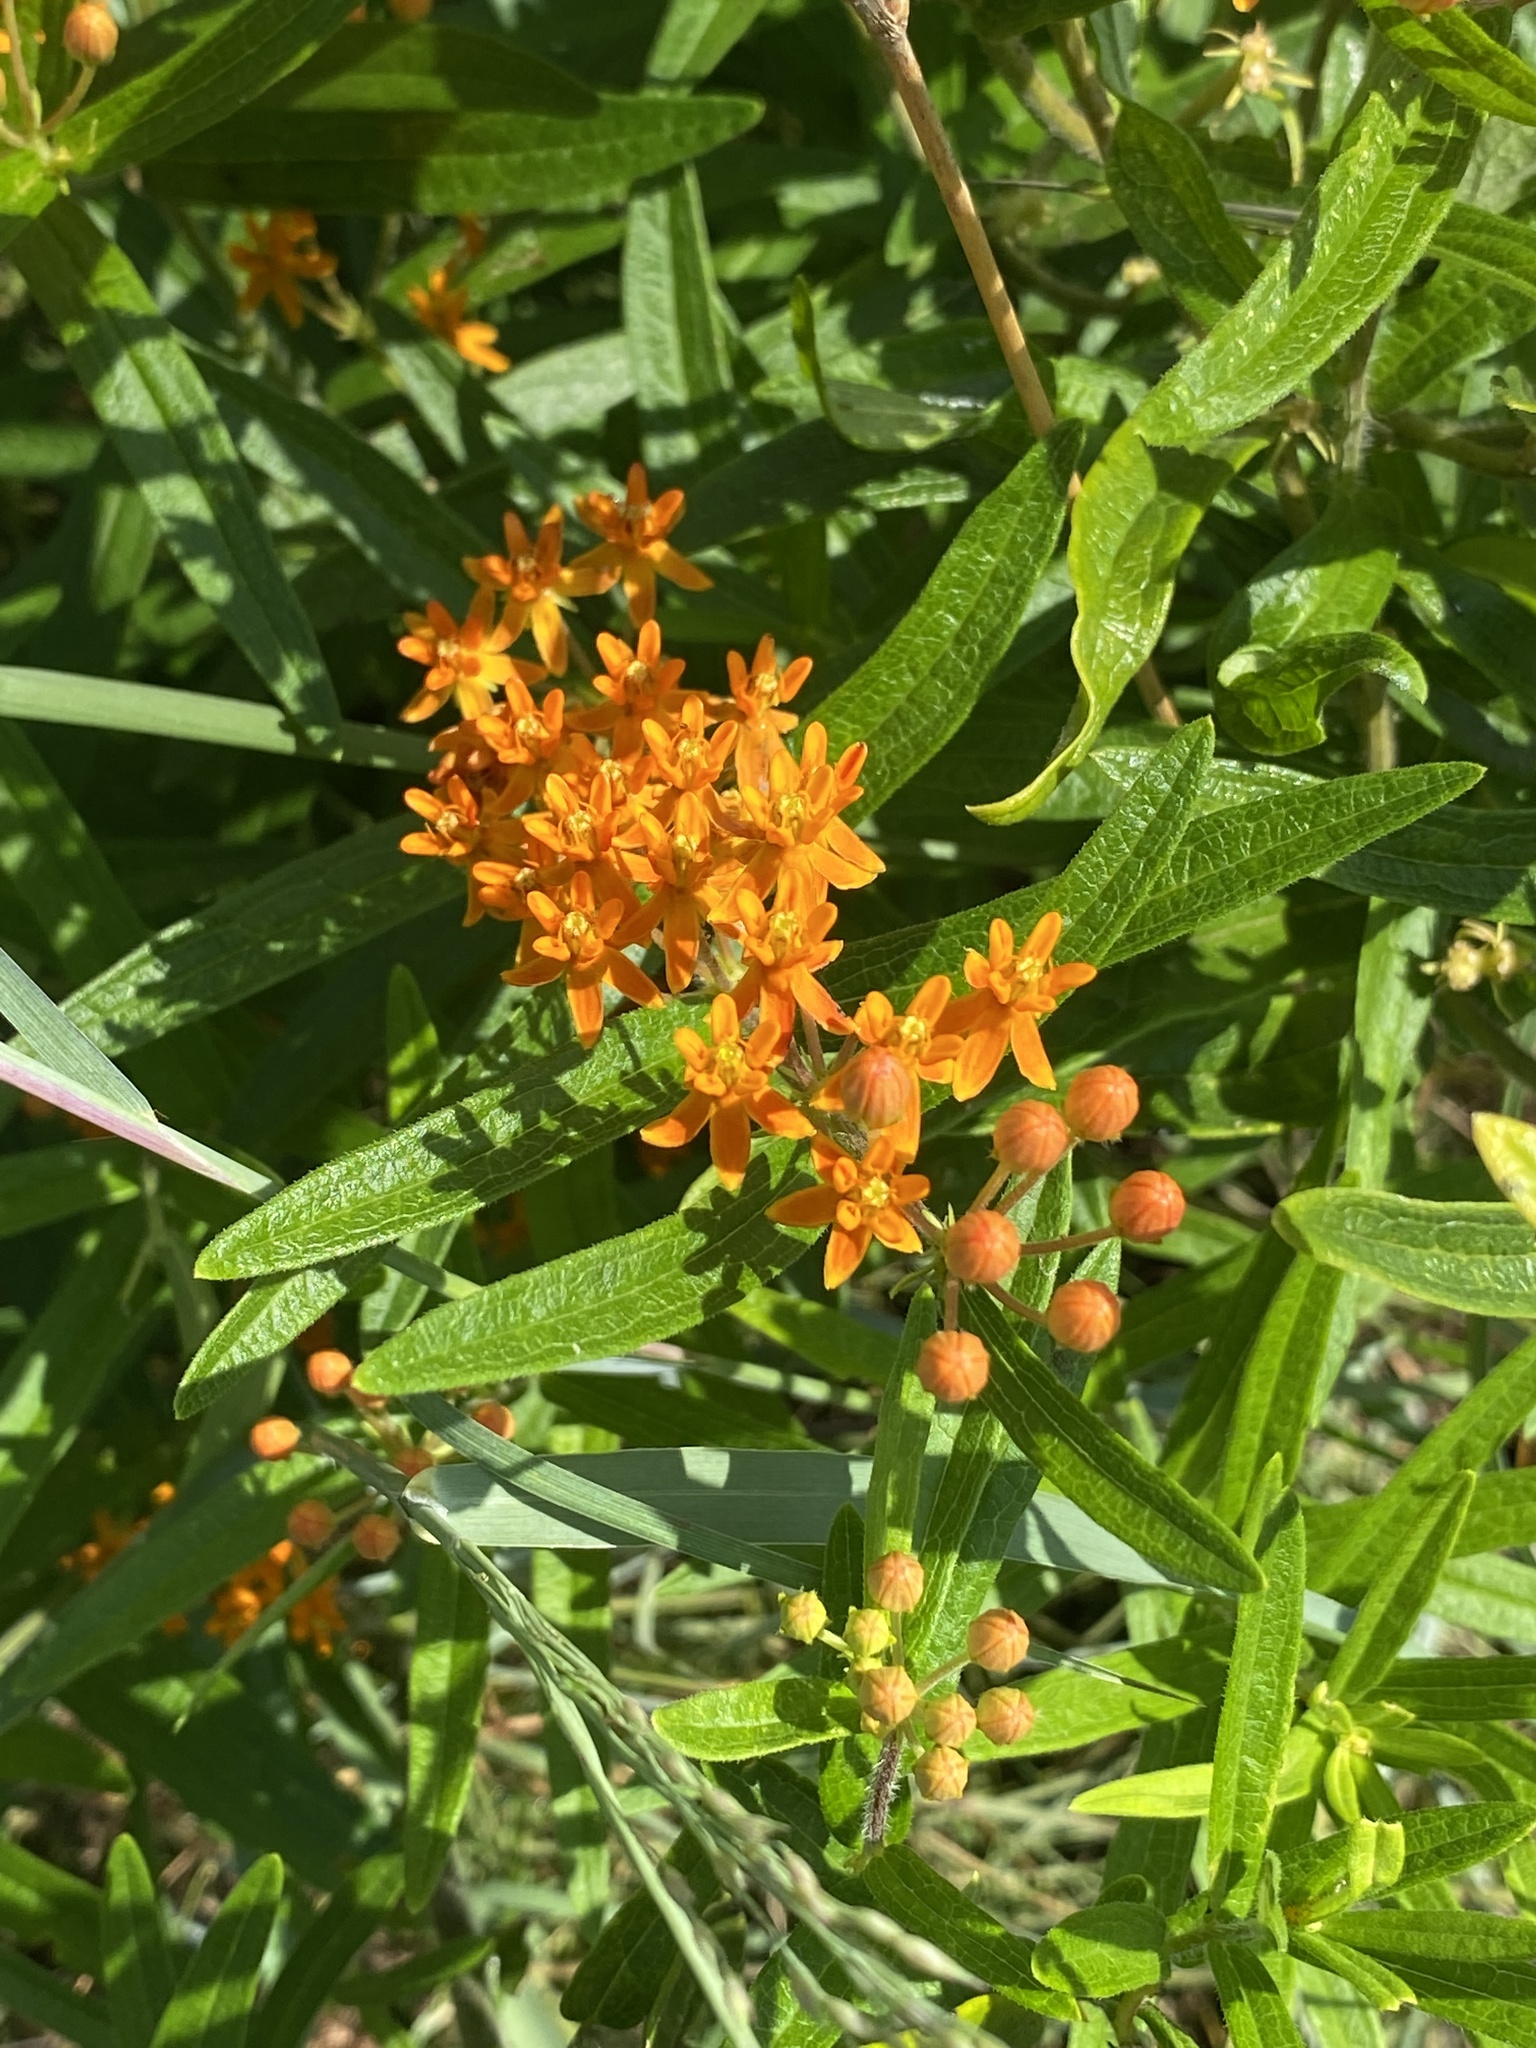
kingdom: Plantae
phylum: Tracheophyta
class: Magnoliopsida
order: Gentianales
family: Apocynaceae
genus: Asclepias
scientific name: Asclepias tuberosa
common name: Butterfly milkweed
